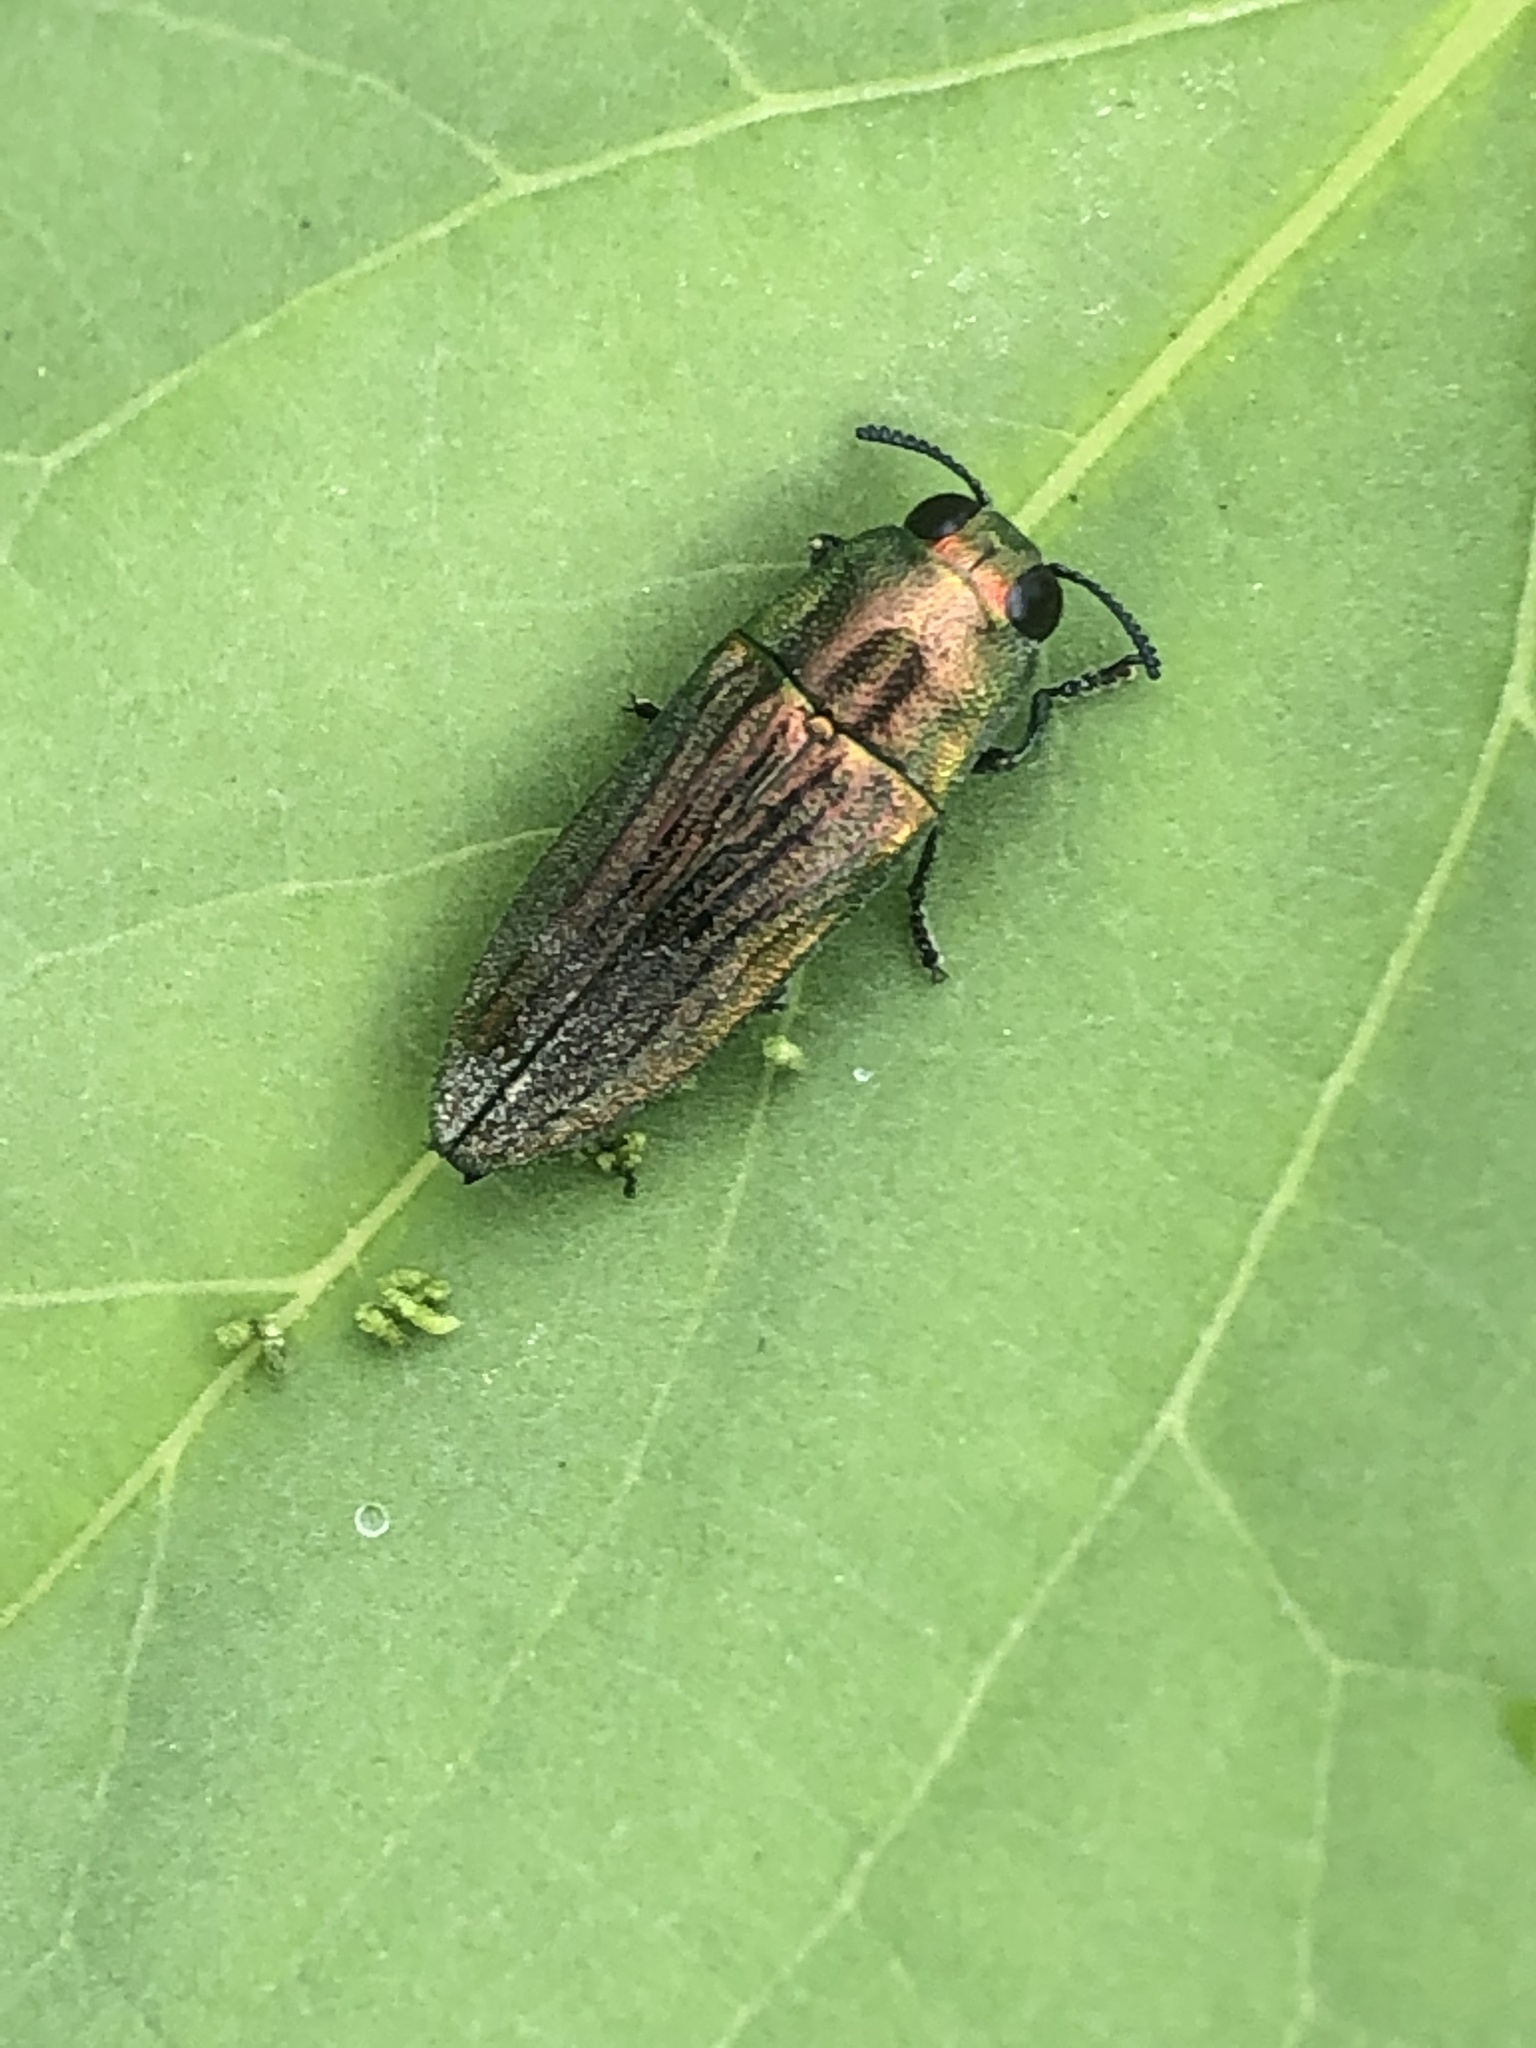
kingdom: Animalia
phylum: Arthropoda
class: Insecta
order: Coleoptera
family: Buprestidae
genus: Agaeocera
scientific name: Agaeocera scintillans
